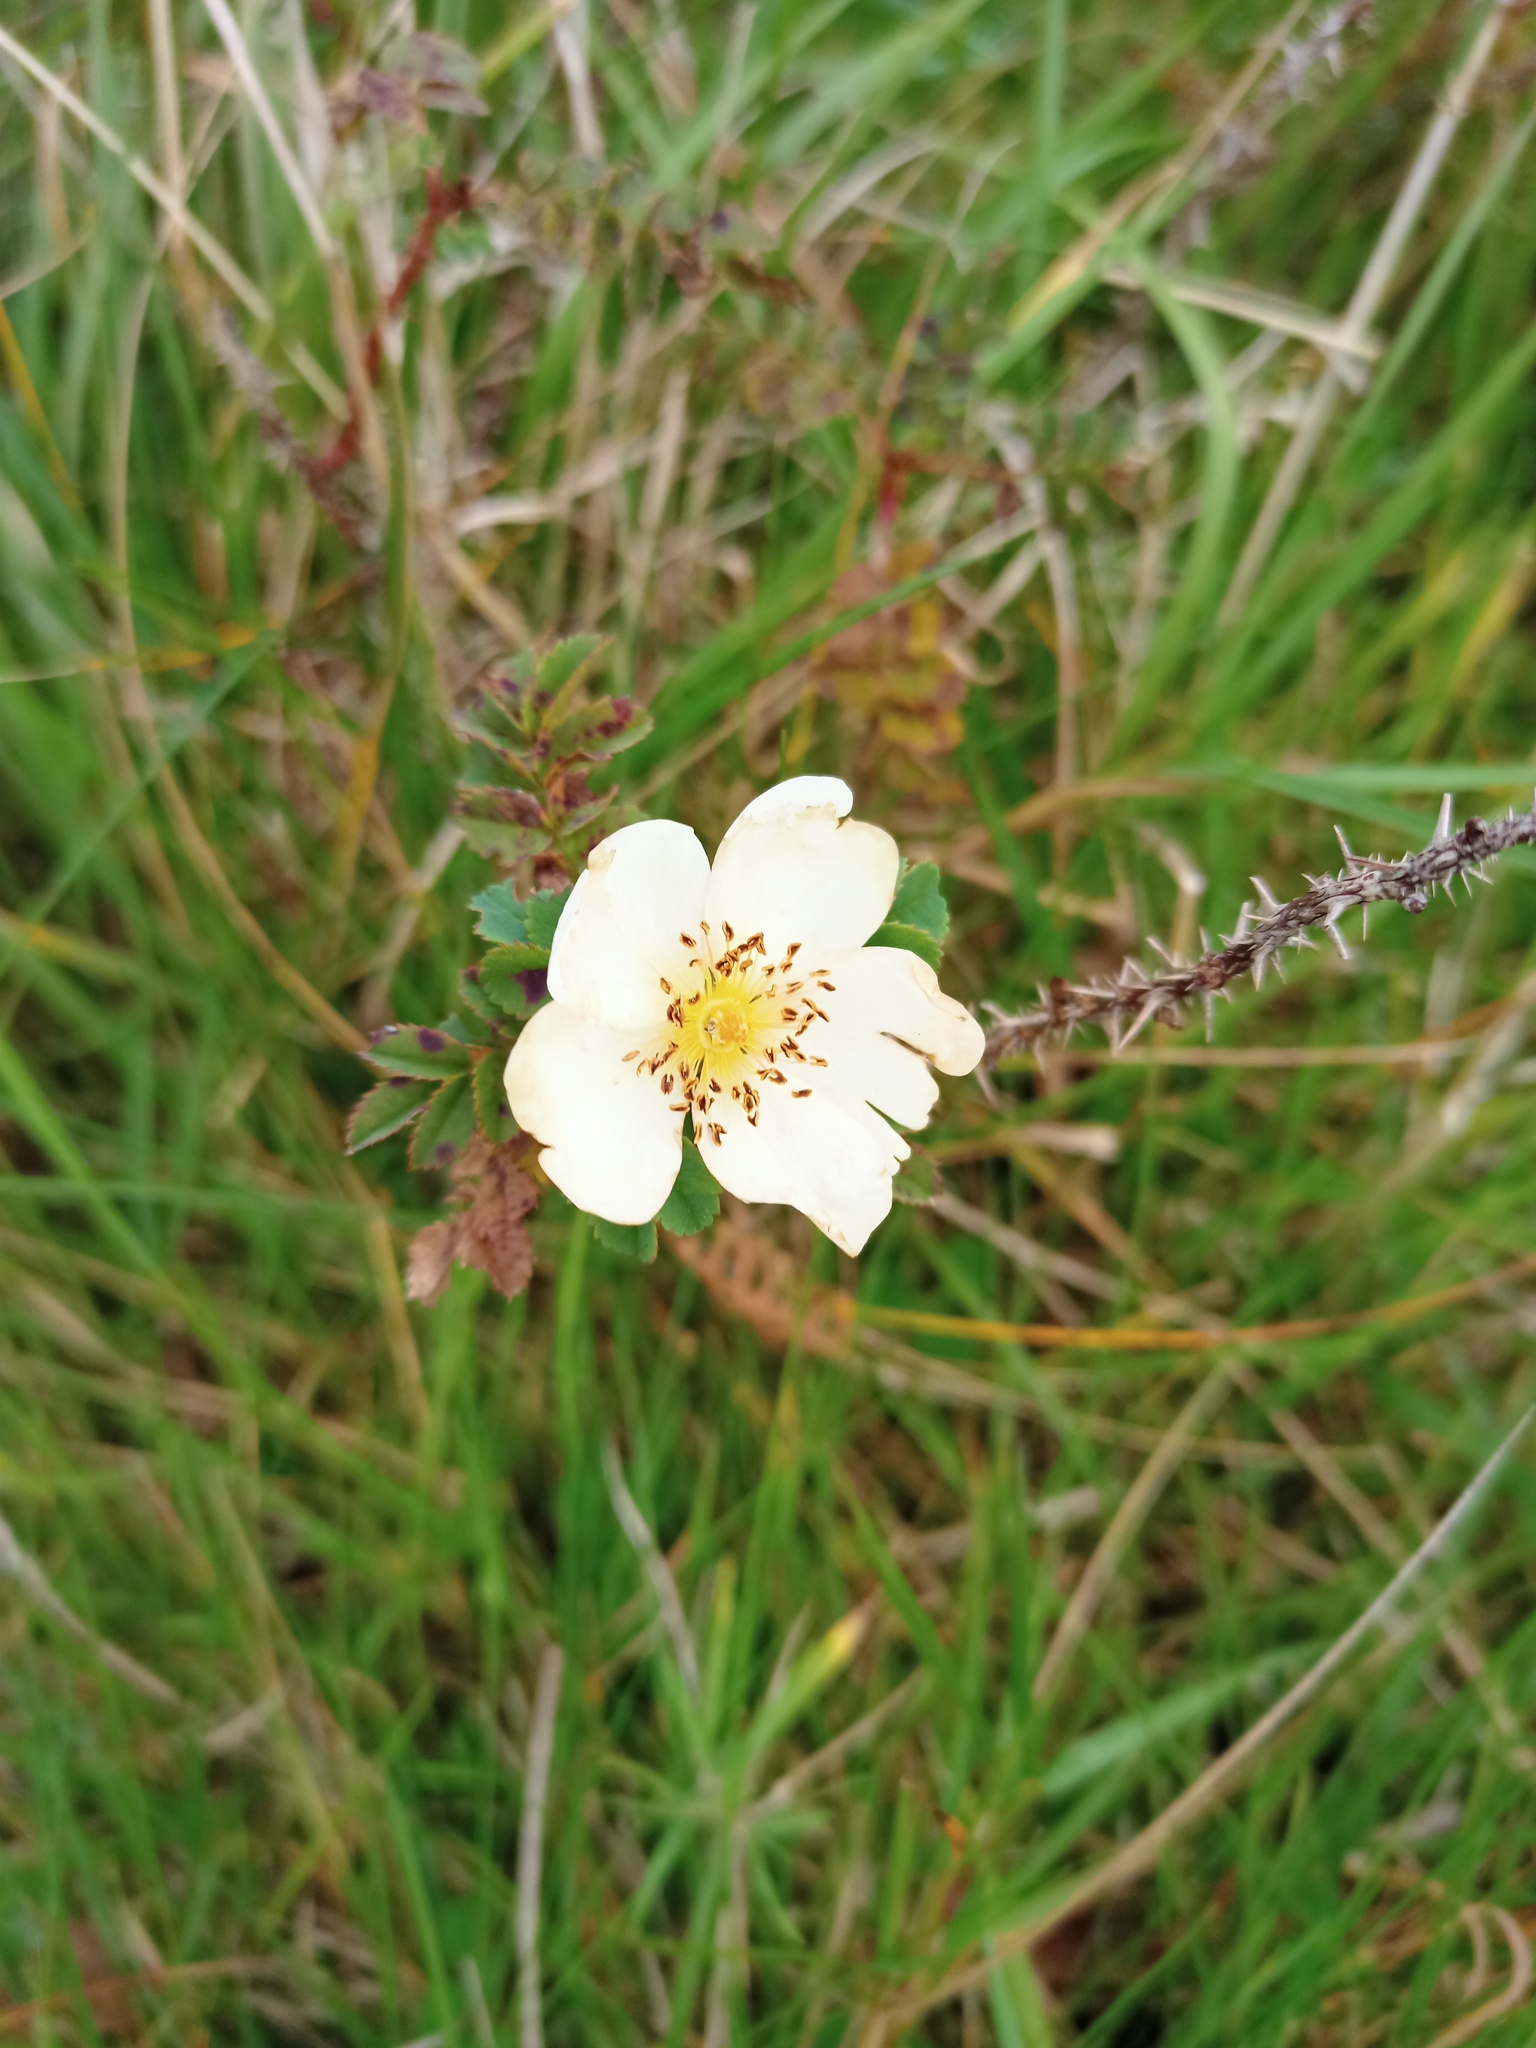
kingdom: Plantae
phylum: Tracheophyta
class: Magnoliopsida
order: Rosales
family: Rosaceae
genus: Rosa
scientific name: Rosa spinosissima
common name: Burnet rose
